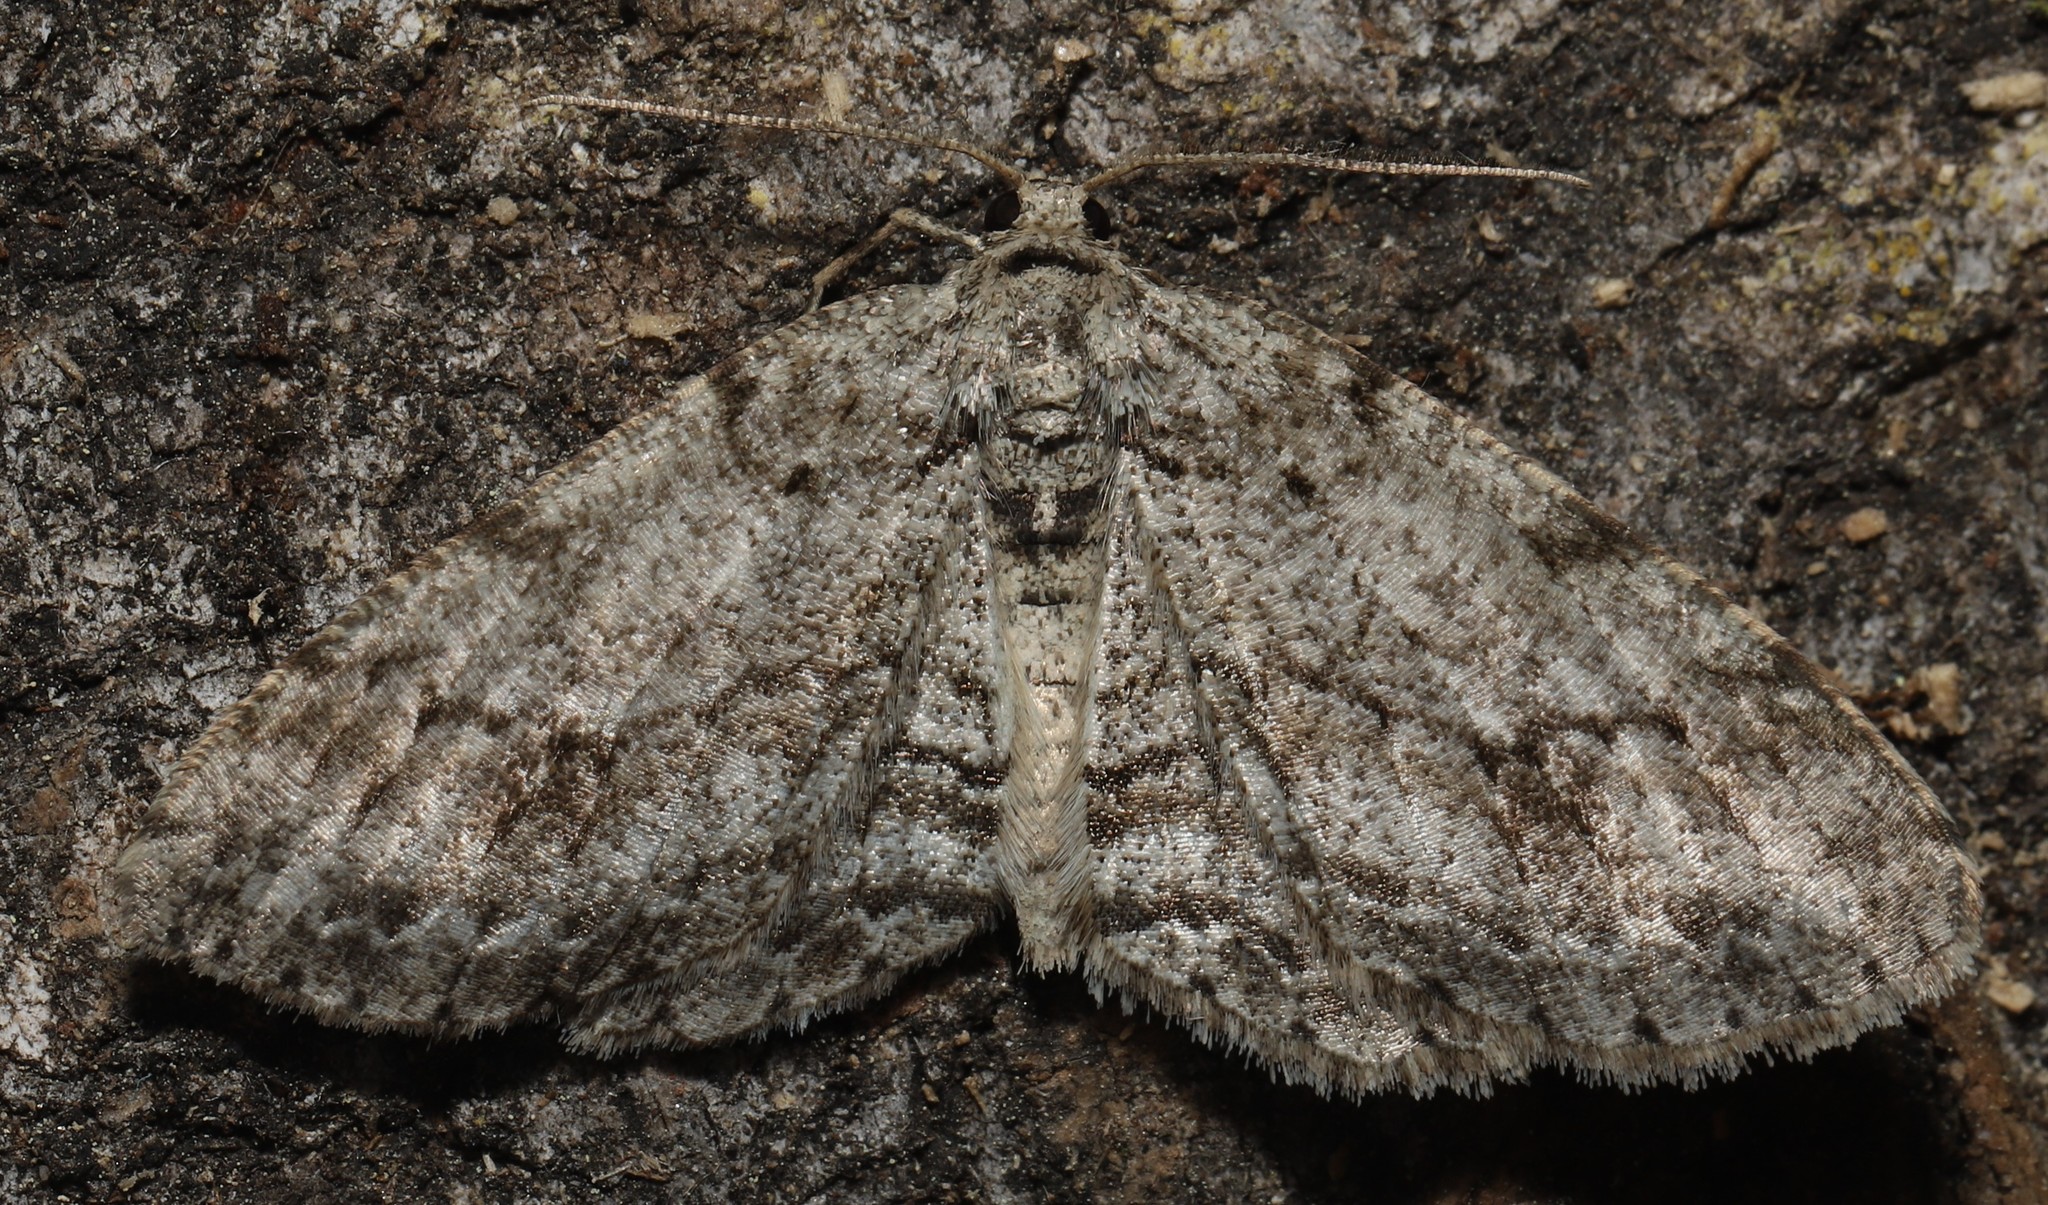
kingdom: Animalia
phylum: Arthropoda
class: Insecta
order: Lepidoptera
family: Geometridae
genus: Ectropis
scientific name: Ectropis crepuscularia
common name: Engrailed
